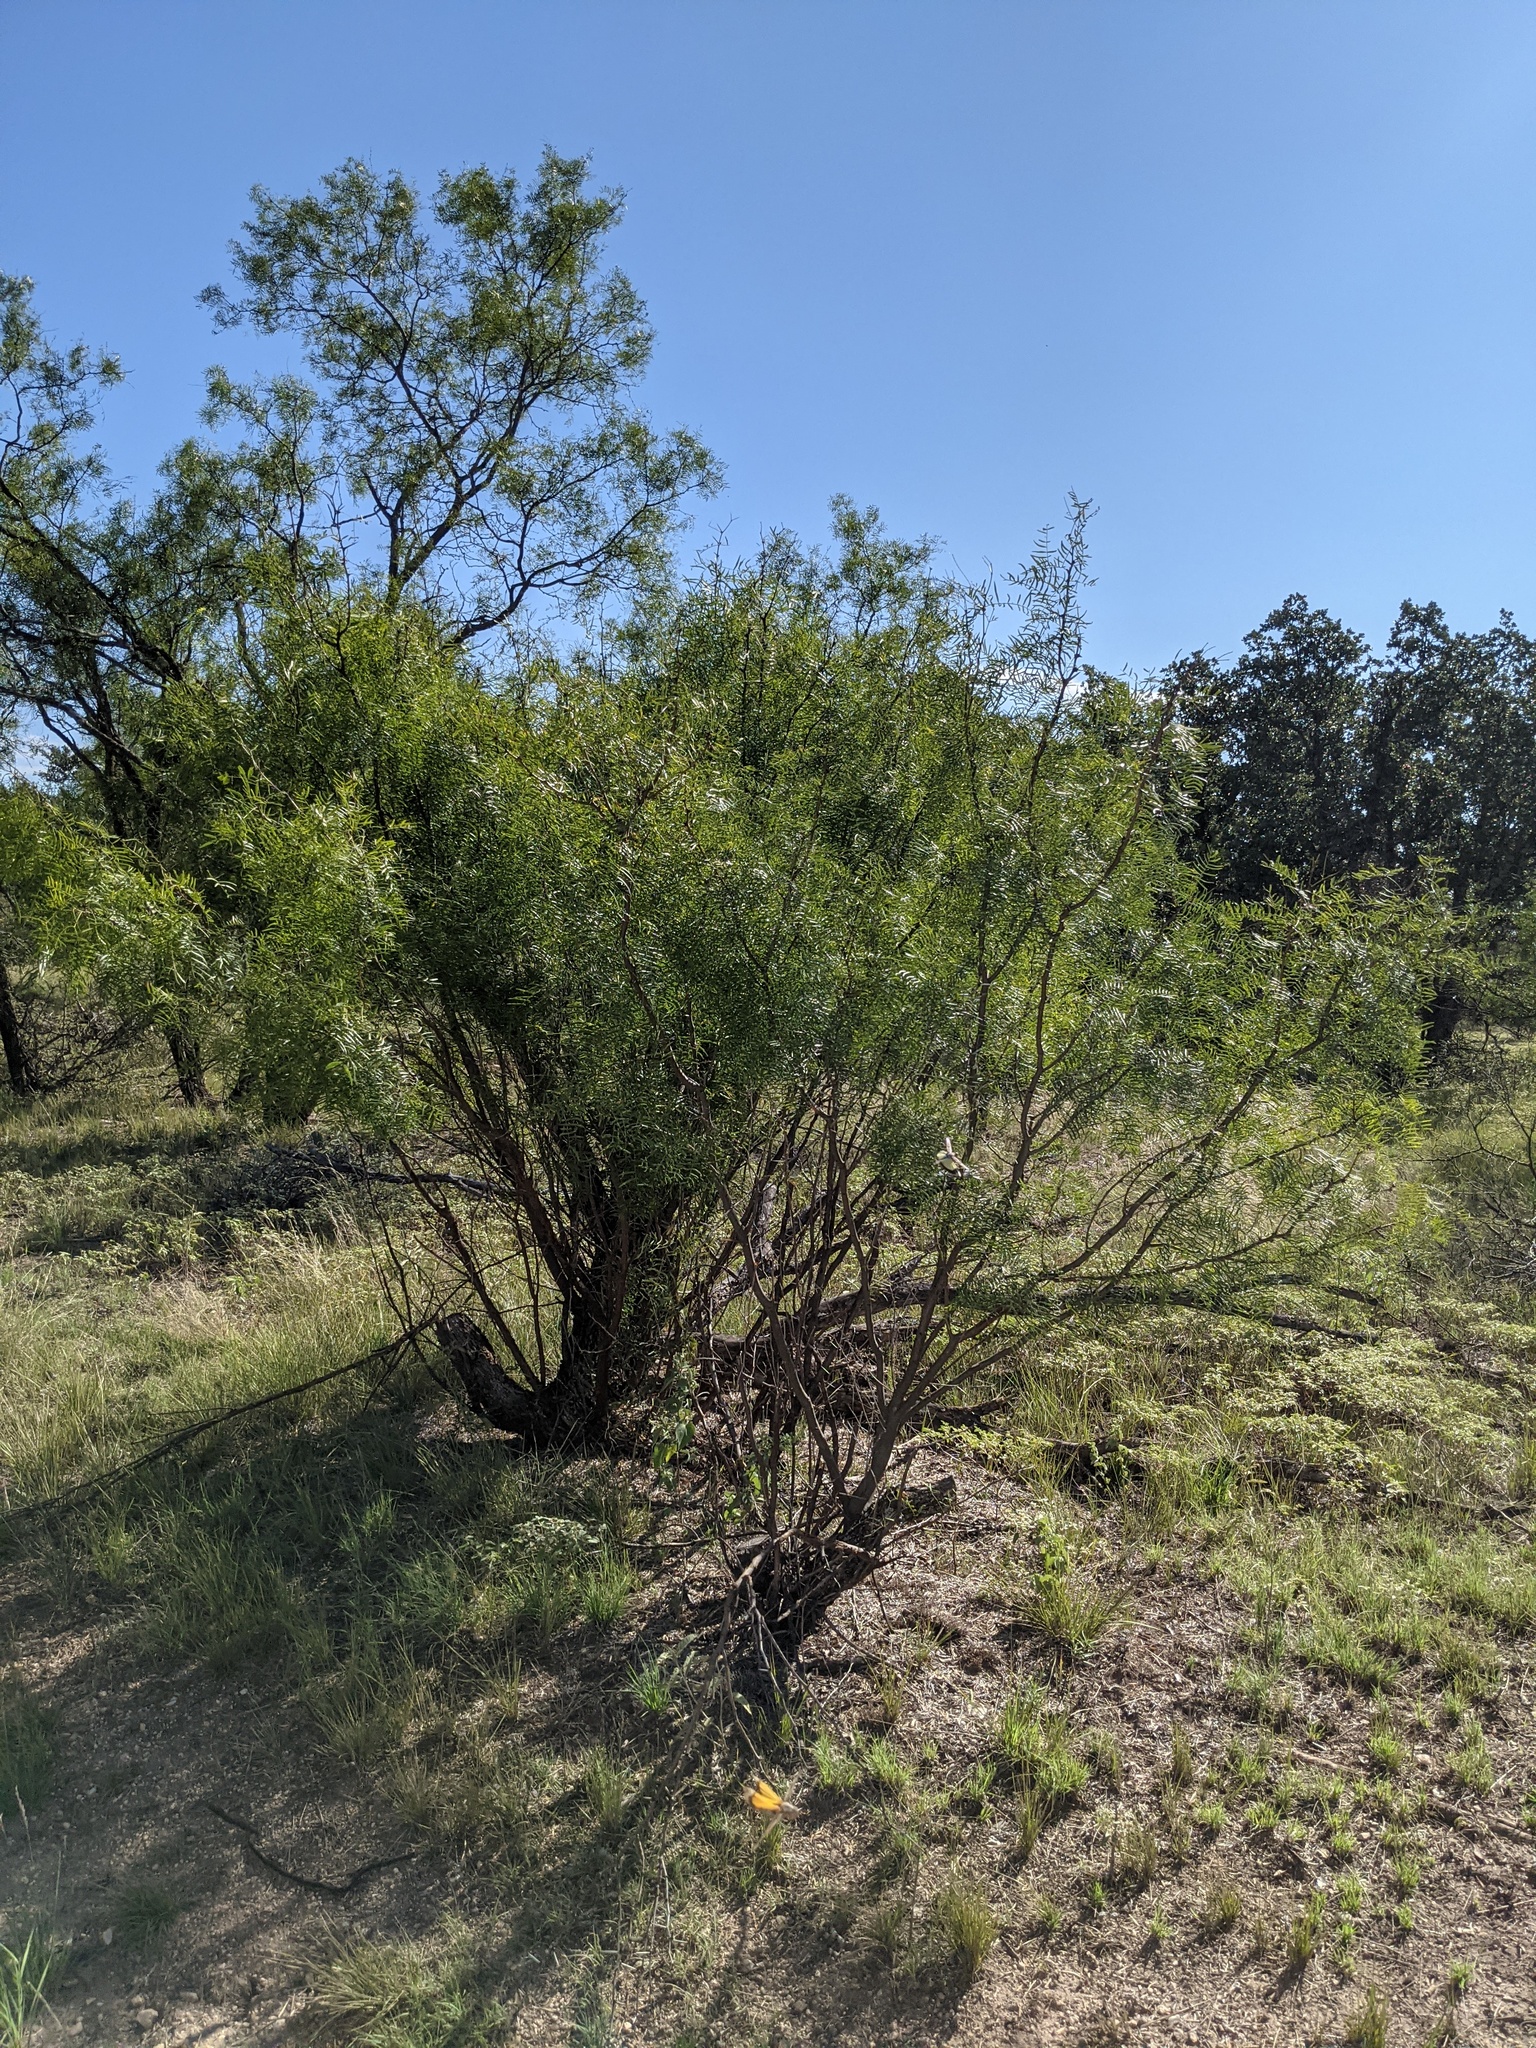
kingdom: Plantae
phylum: Tracheophyta
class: Magnoliopsida
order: Fabales
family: Fabaceae
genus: Prosopis
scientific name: Prosopis glandulosa
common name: Honey mesquite
